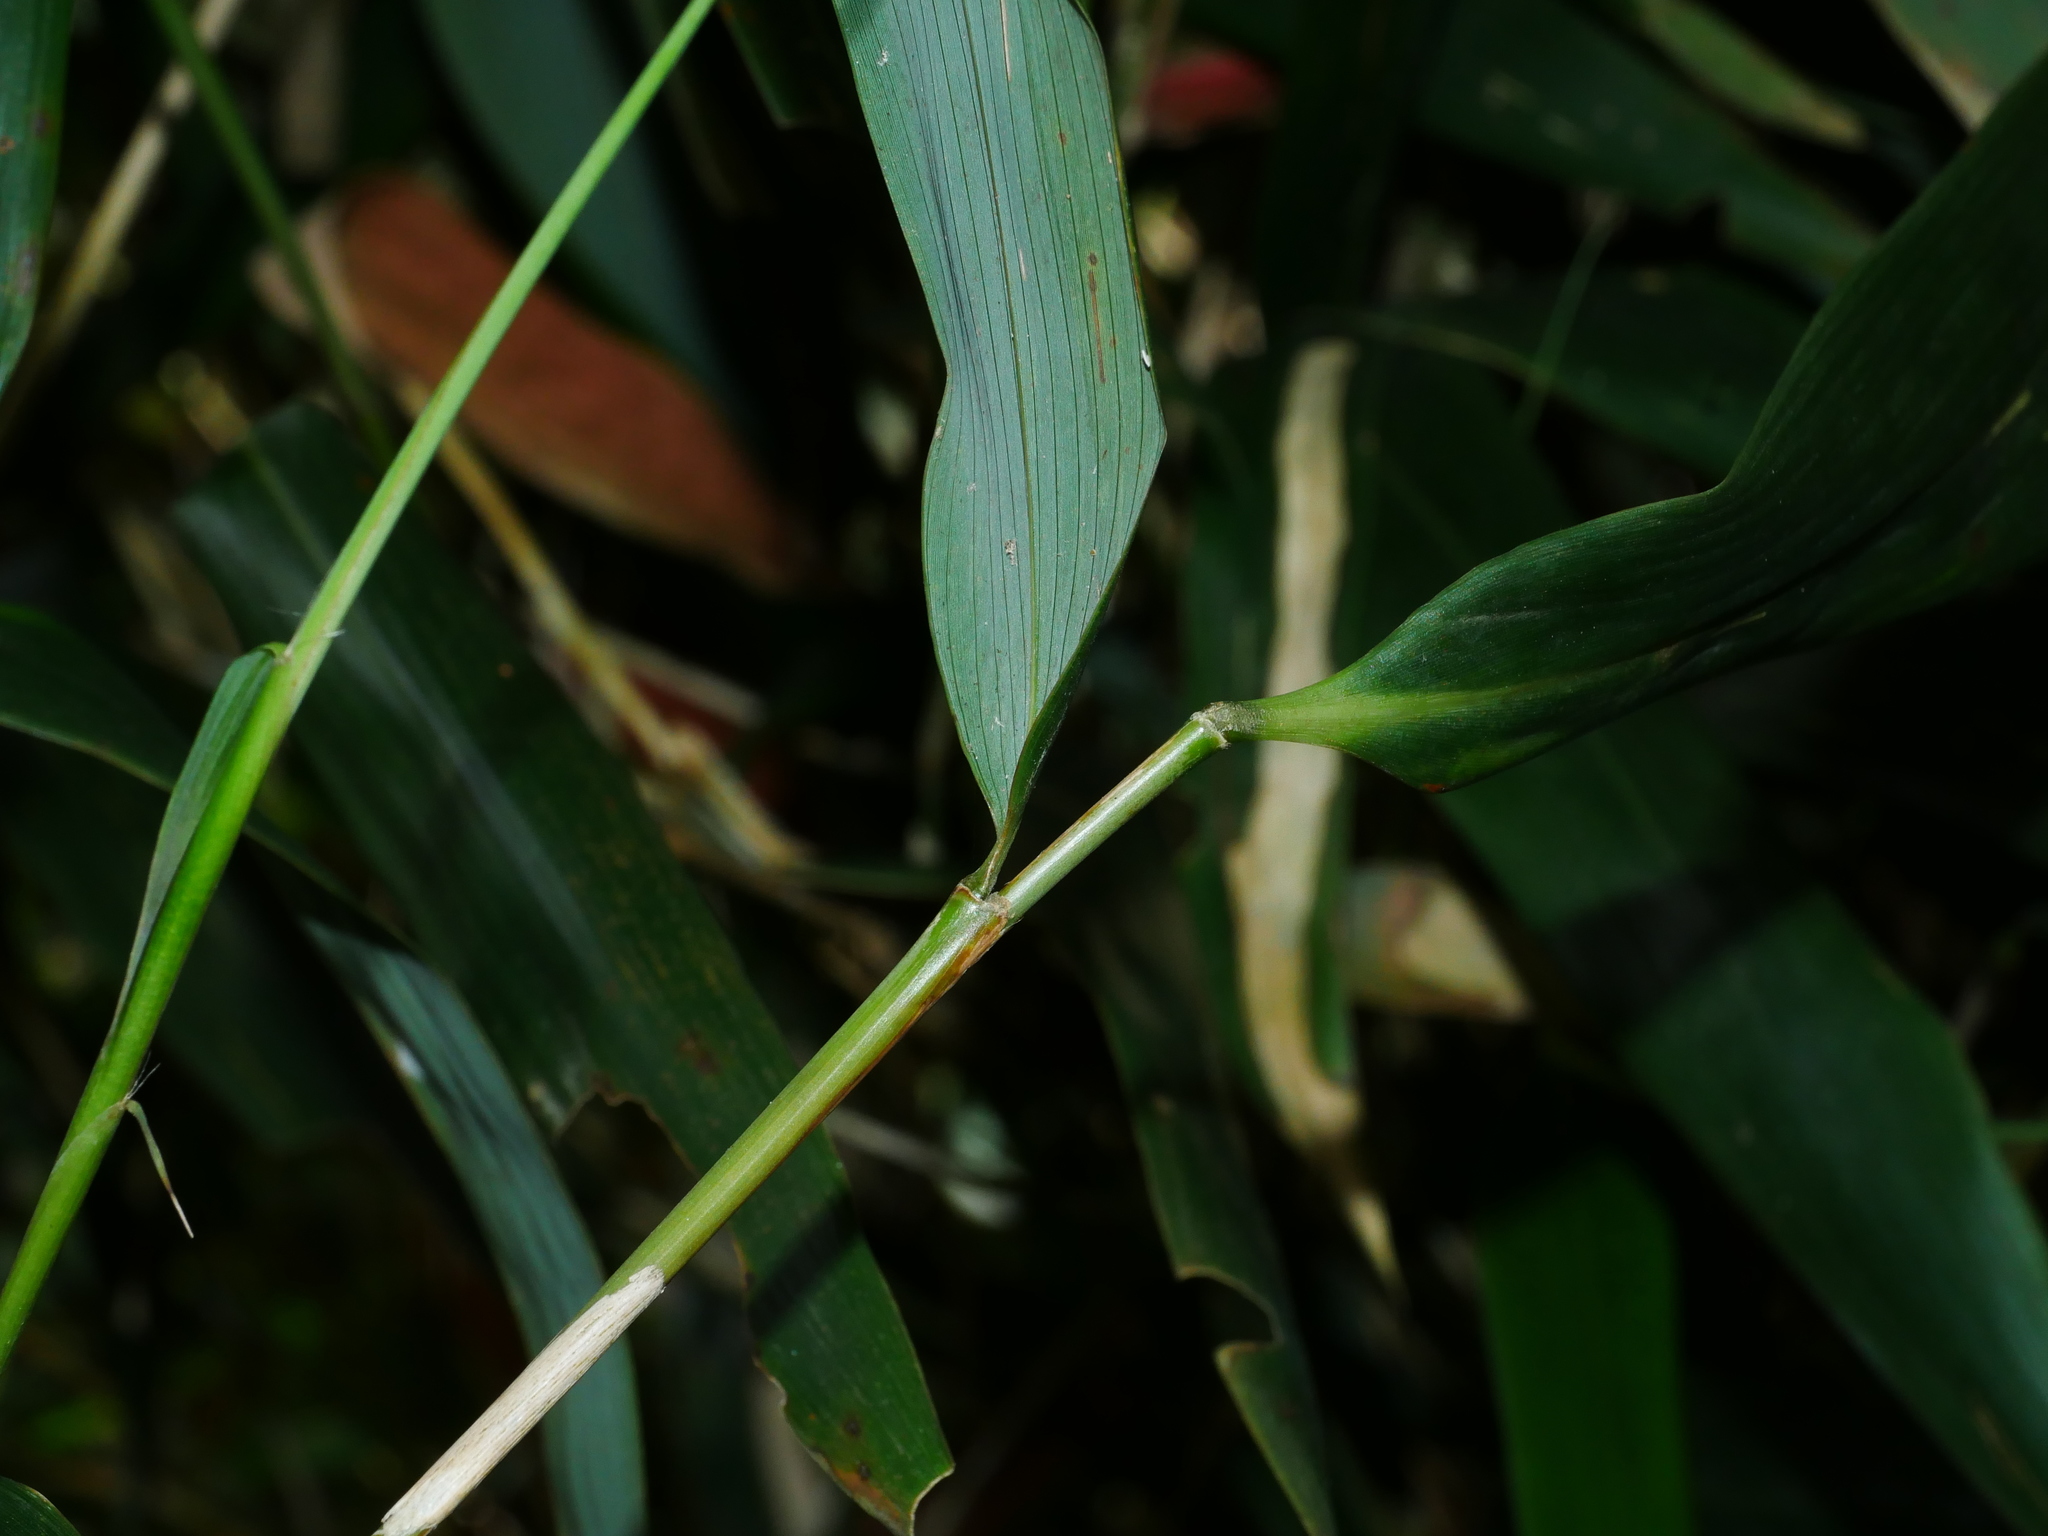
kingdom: Plantae
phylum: Tracheophyta
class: Liliopsida
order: Poales
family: Poaceae
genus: Pseudosasa
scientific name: Pseudosasa japonica
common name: Arrow bamboo
